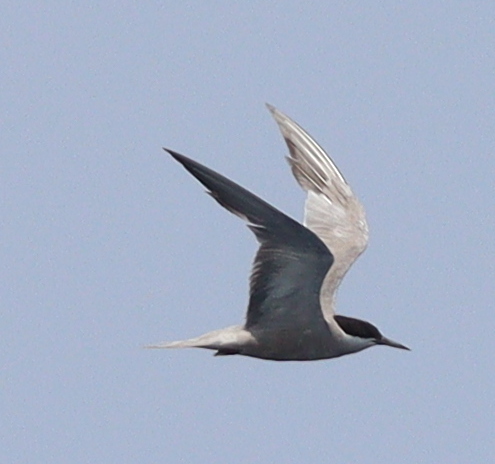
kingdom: Animalia
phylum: Chordata
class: Aves
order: Charadriiformes
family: Laridae
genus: Sterna
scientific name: Sterna repressa
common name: White-cheeked tern
